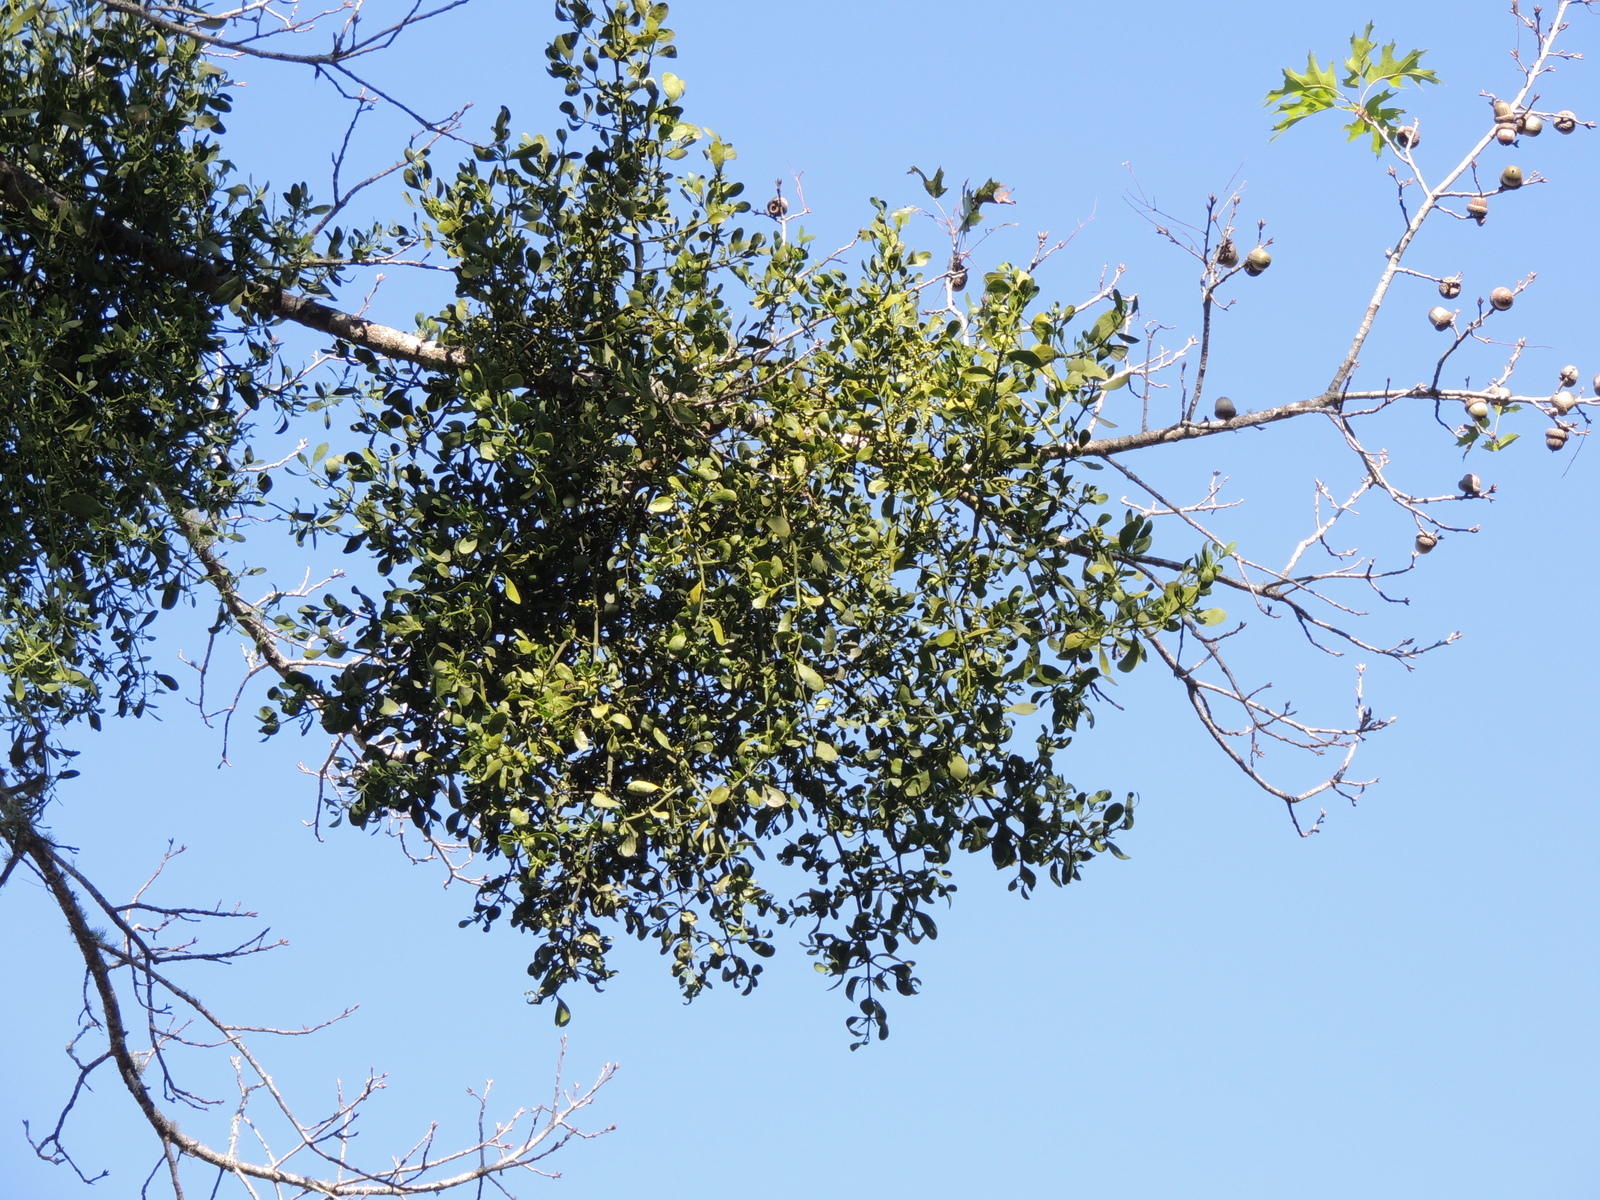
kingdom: Plantae
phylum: Tracheophyta
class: Magnoliopsida
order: Santalales
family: Viscaceae
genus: Phoradendron
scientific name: Phoradendron leucarpum
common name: Pacific mistletoe
